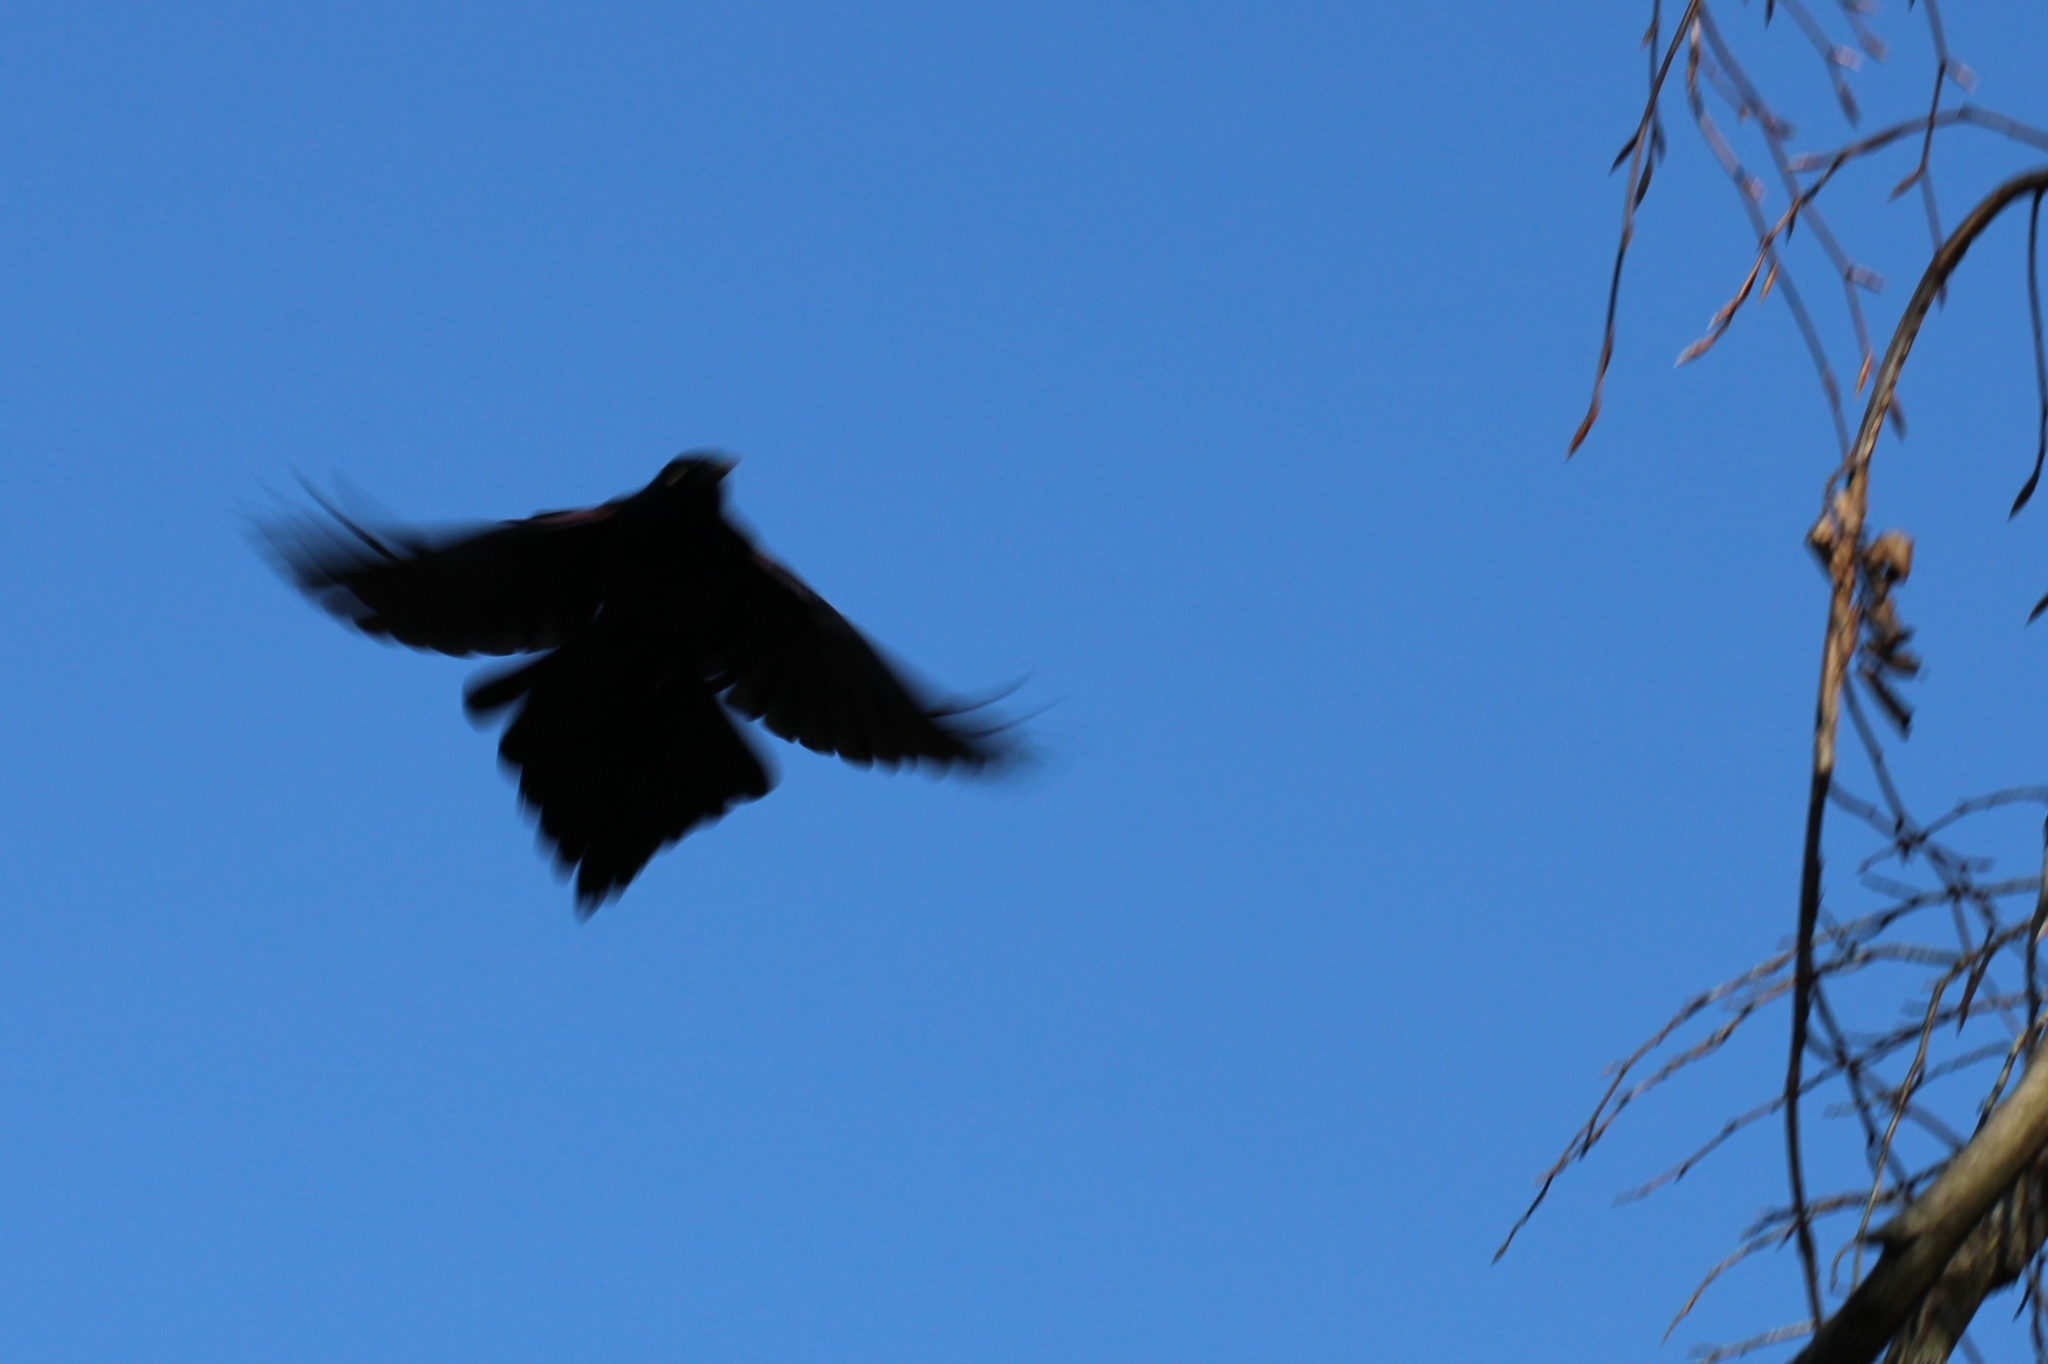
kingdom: Animalia
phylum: Chordata
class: Aves
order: Passeriformes
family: Icteridae
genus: Quiscalus
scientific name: Quiscalus quiscula
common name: Common grackle
